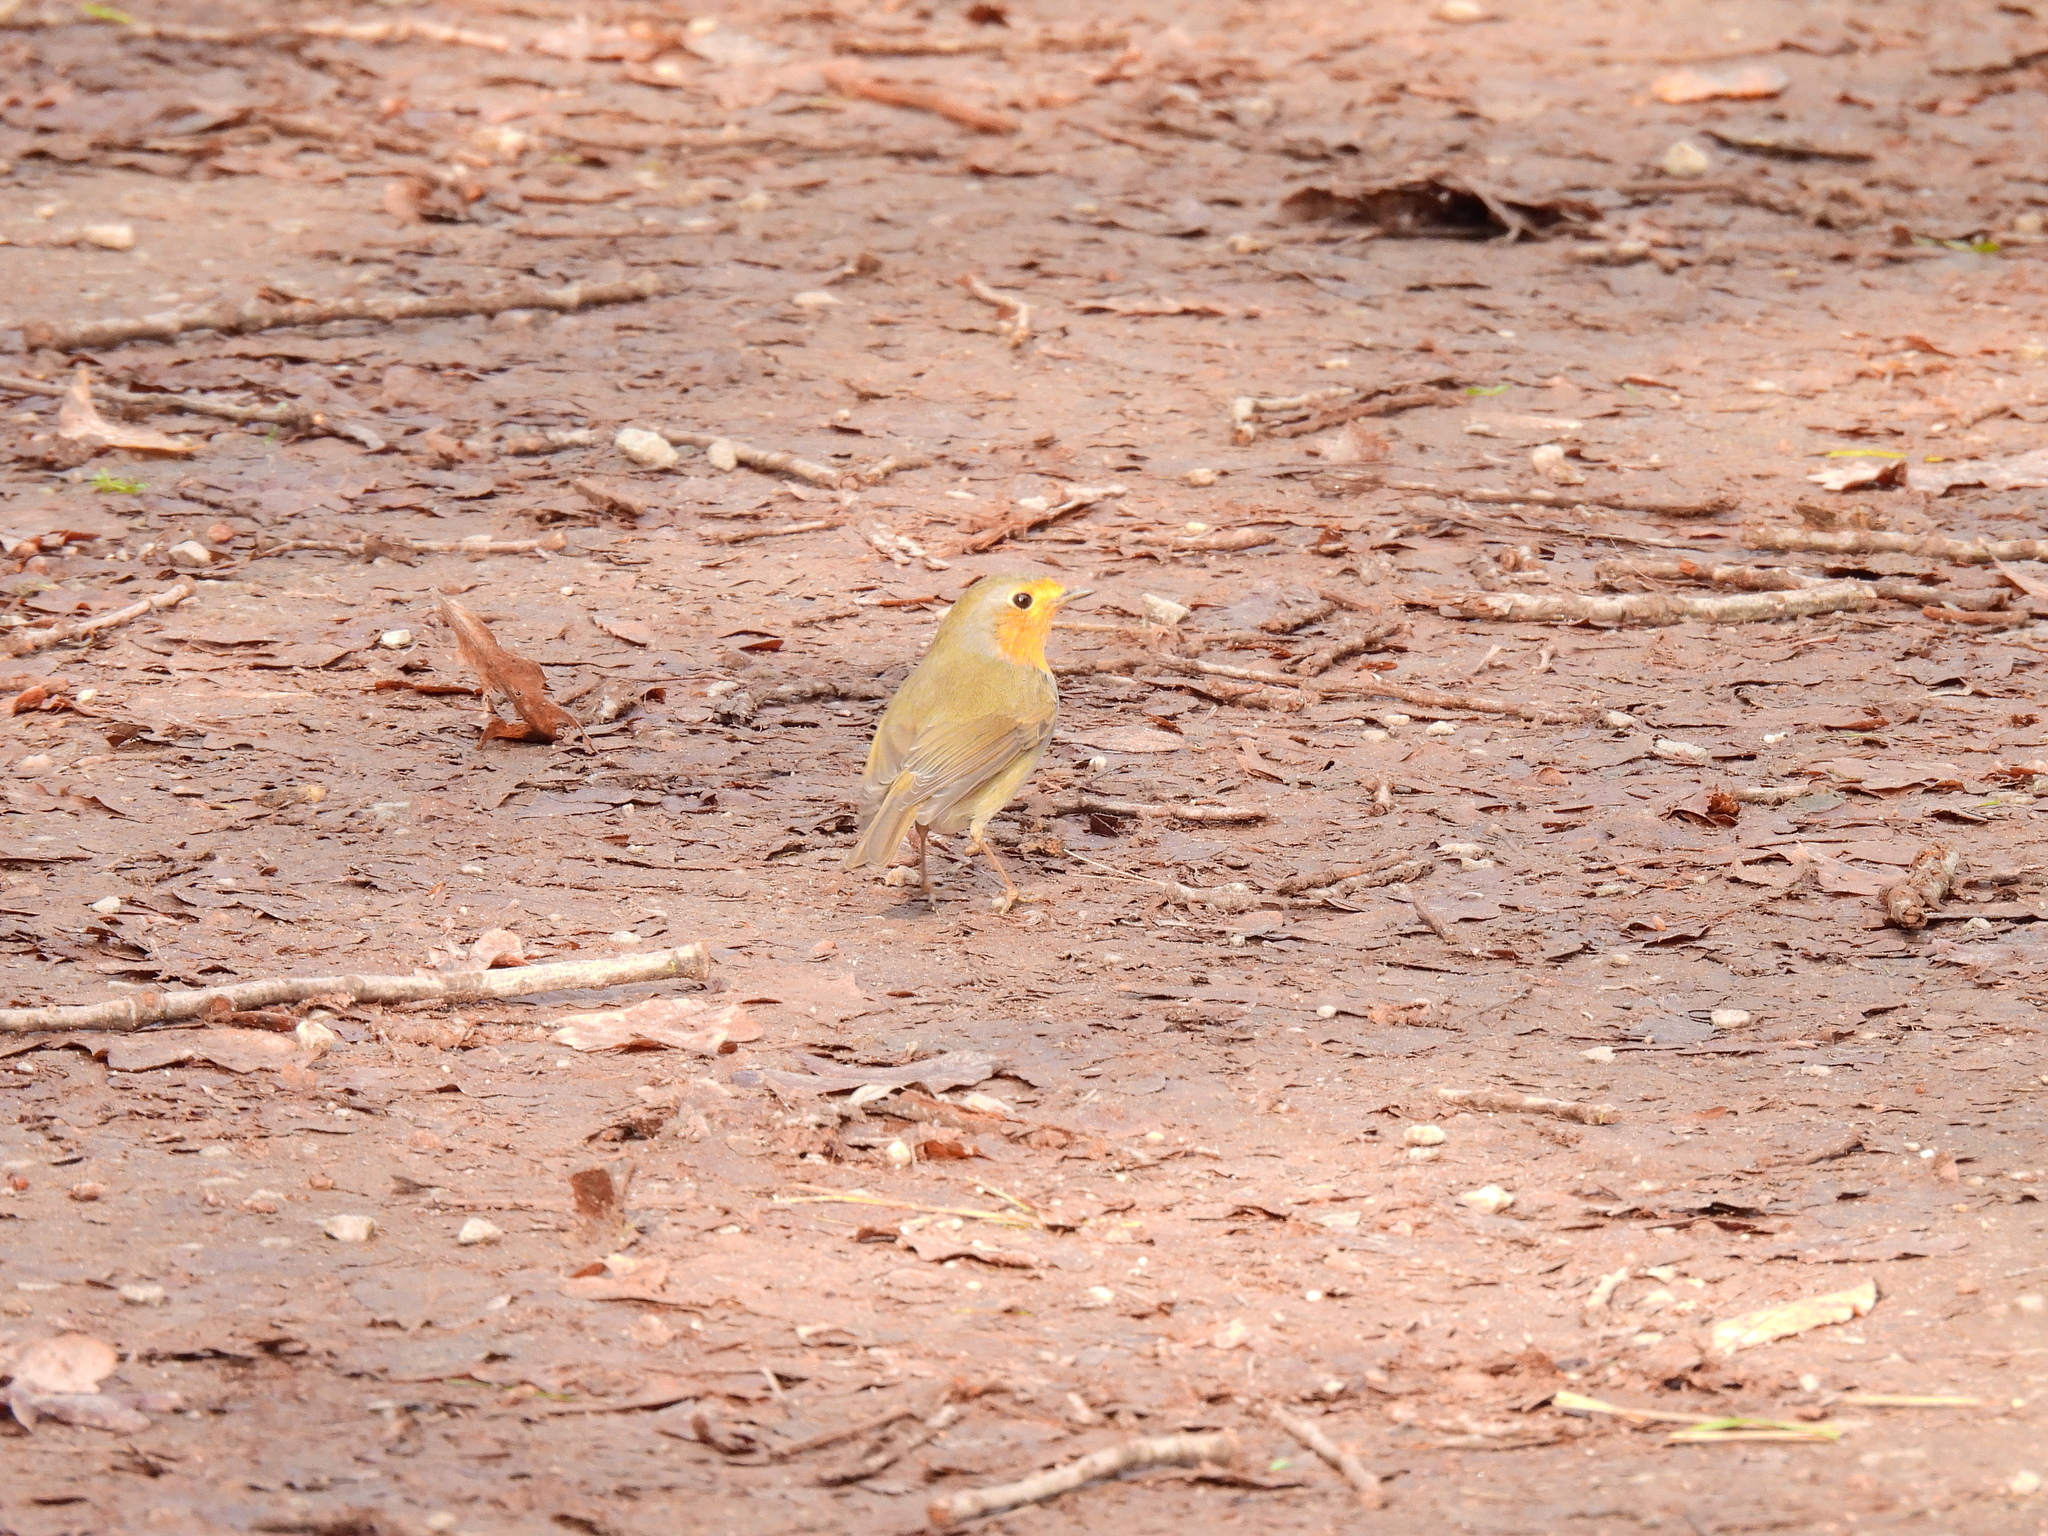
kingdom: Animalia
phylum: Chordata
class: Aves
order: Passeriformes
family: Muscicapidae
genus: Erithacus
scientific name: Erithacus rubecula
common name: European robin
